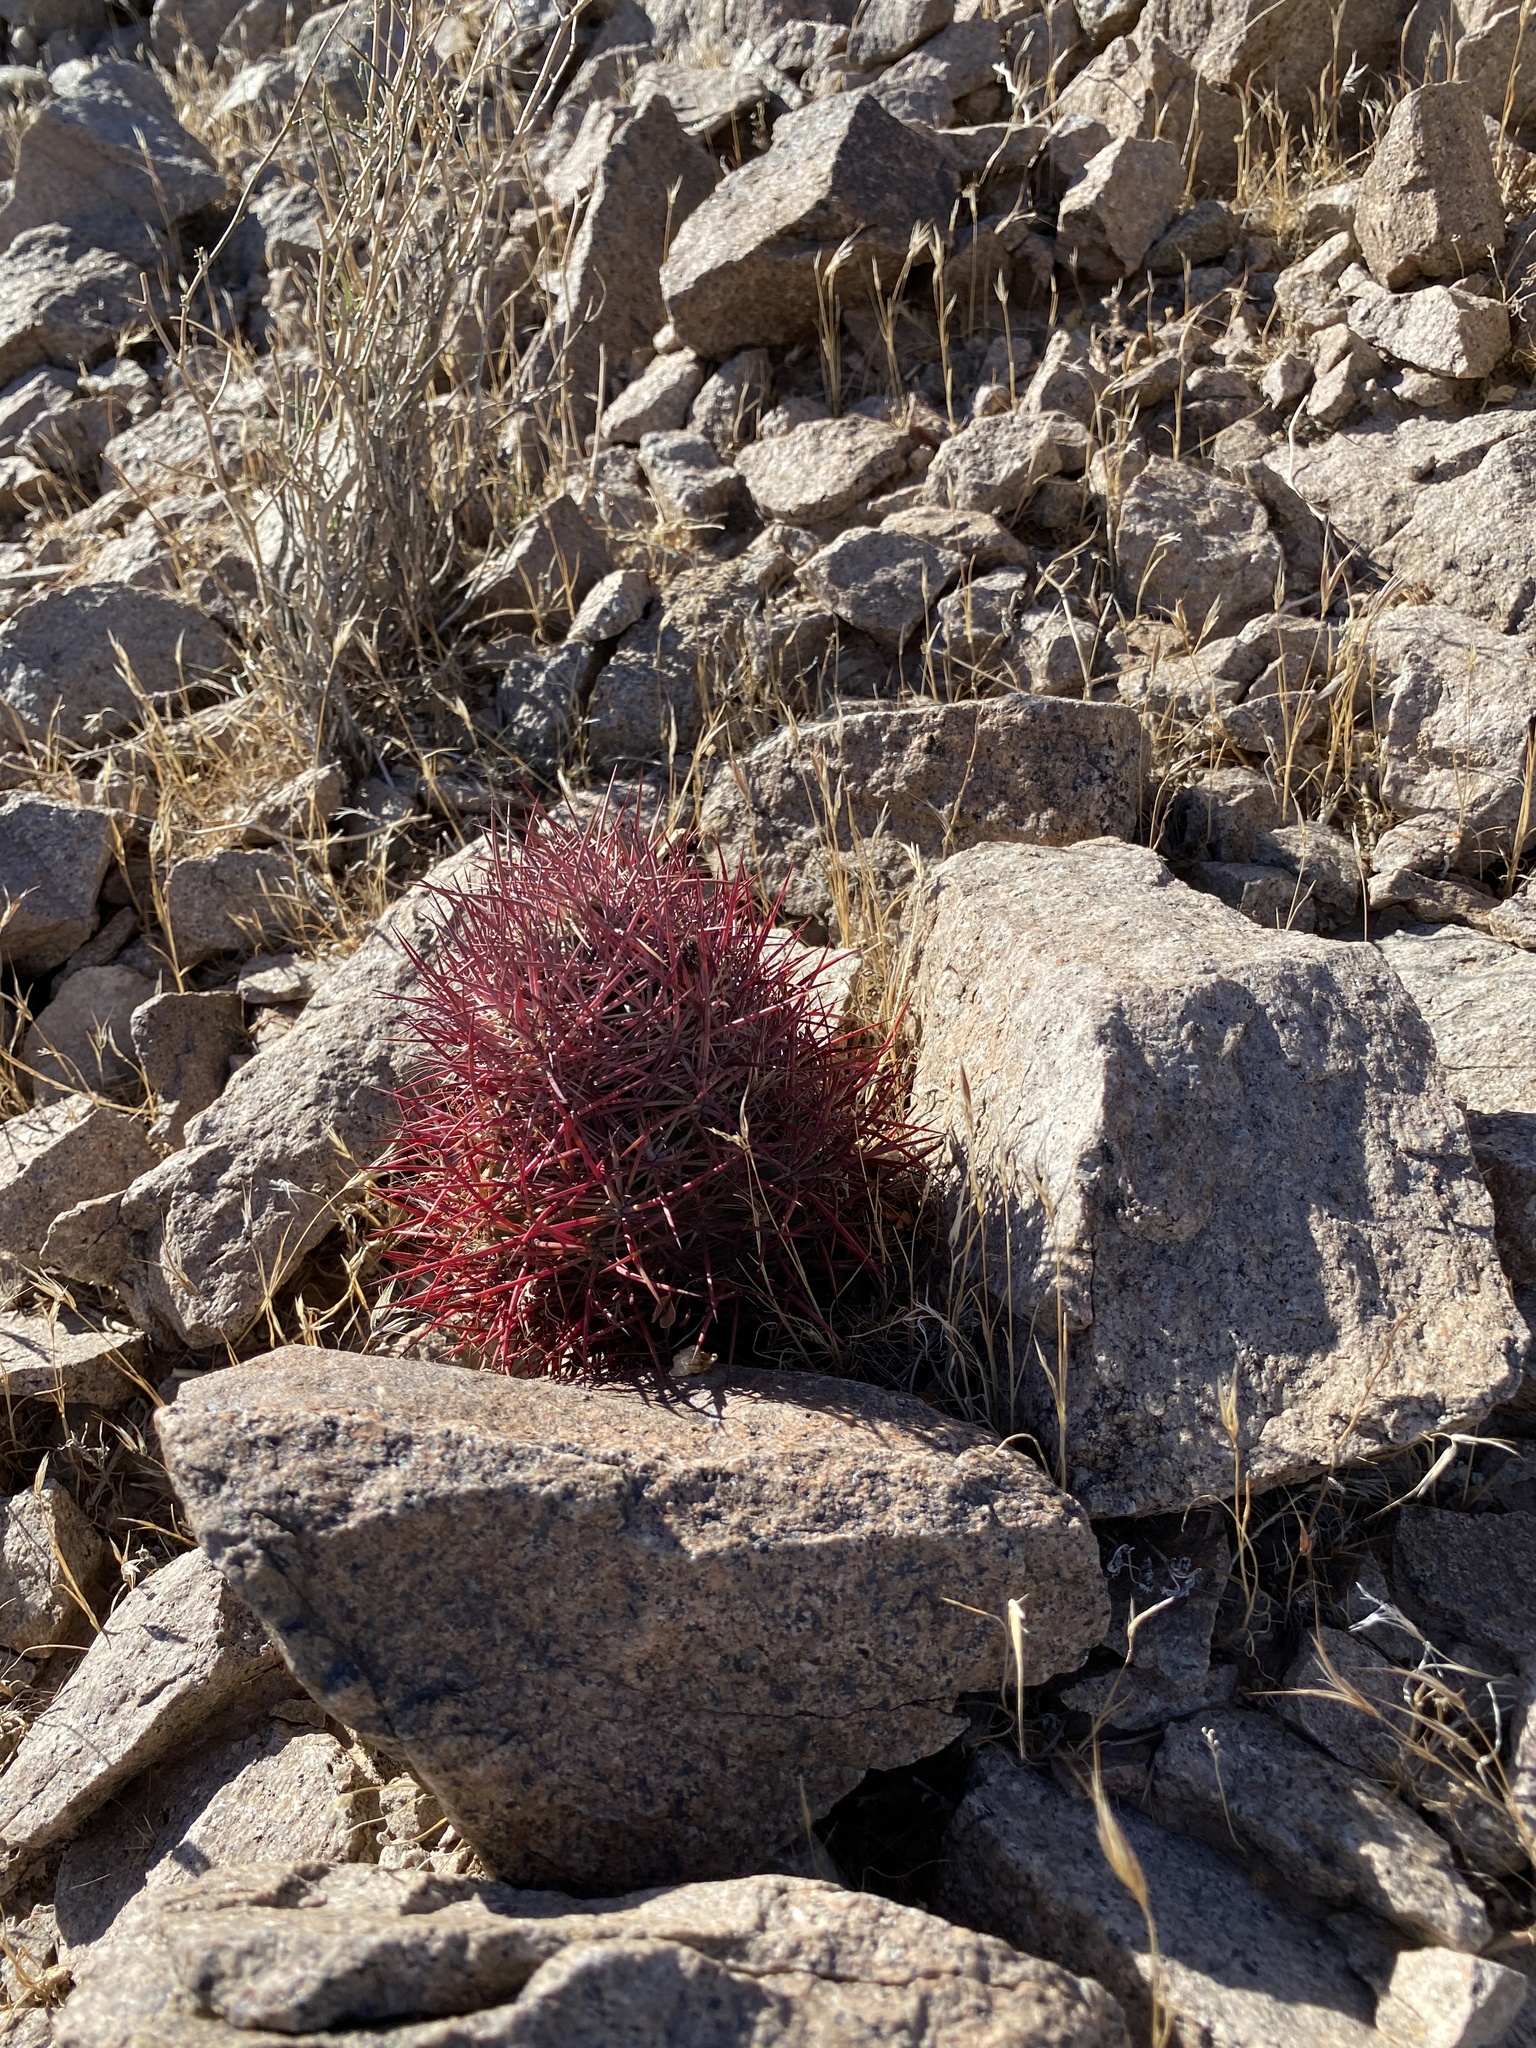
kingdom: Plantae
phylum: Tracheophyta
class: Magnoliopsida
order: Caryophyllales
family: Cactaceae
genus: Sclerocactus
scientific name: Sclerocactus johnsonii
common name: Eight-spine fishhook cactus
